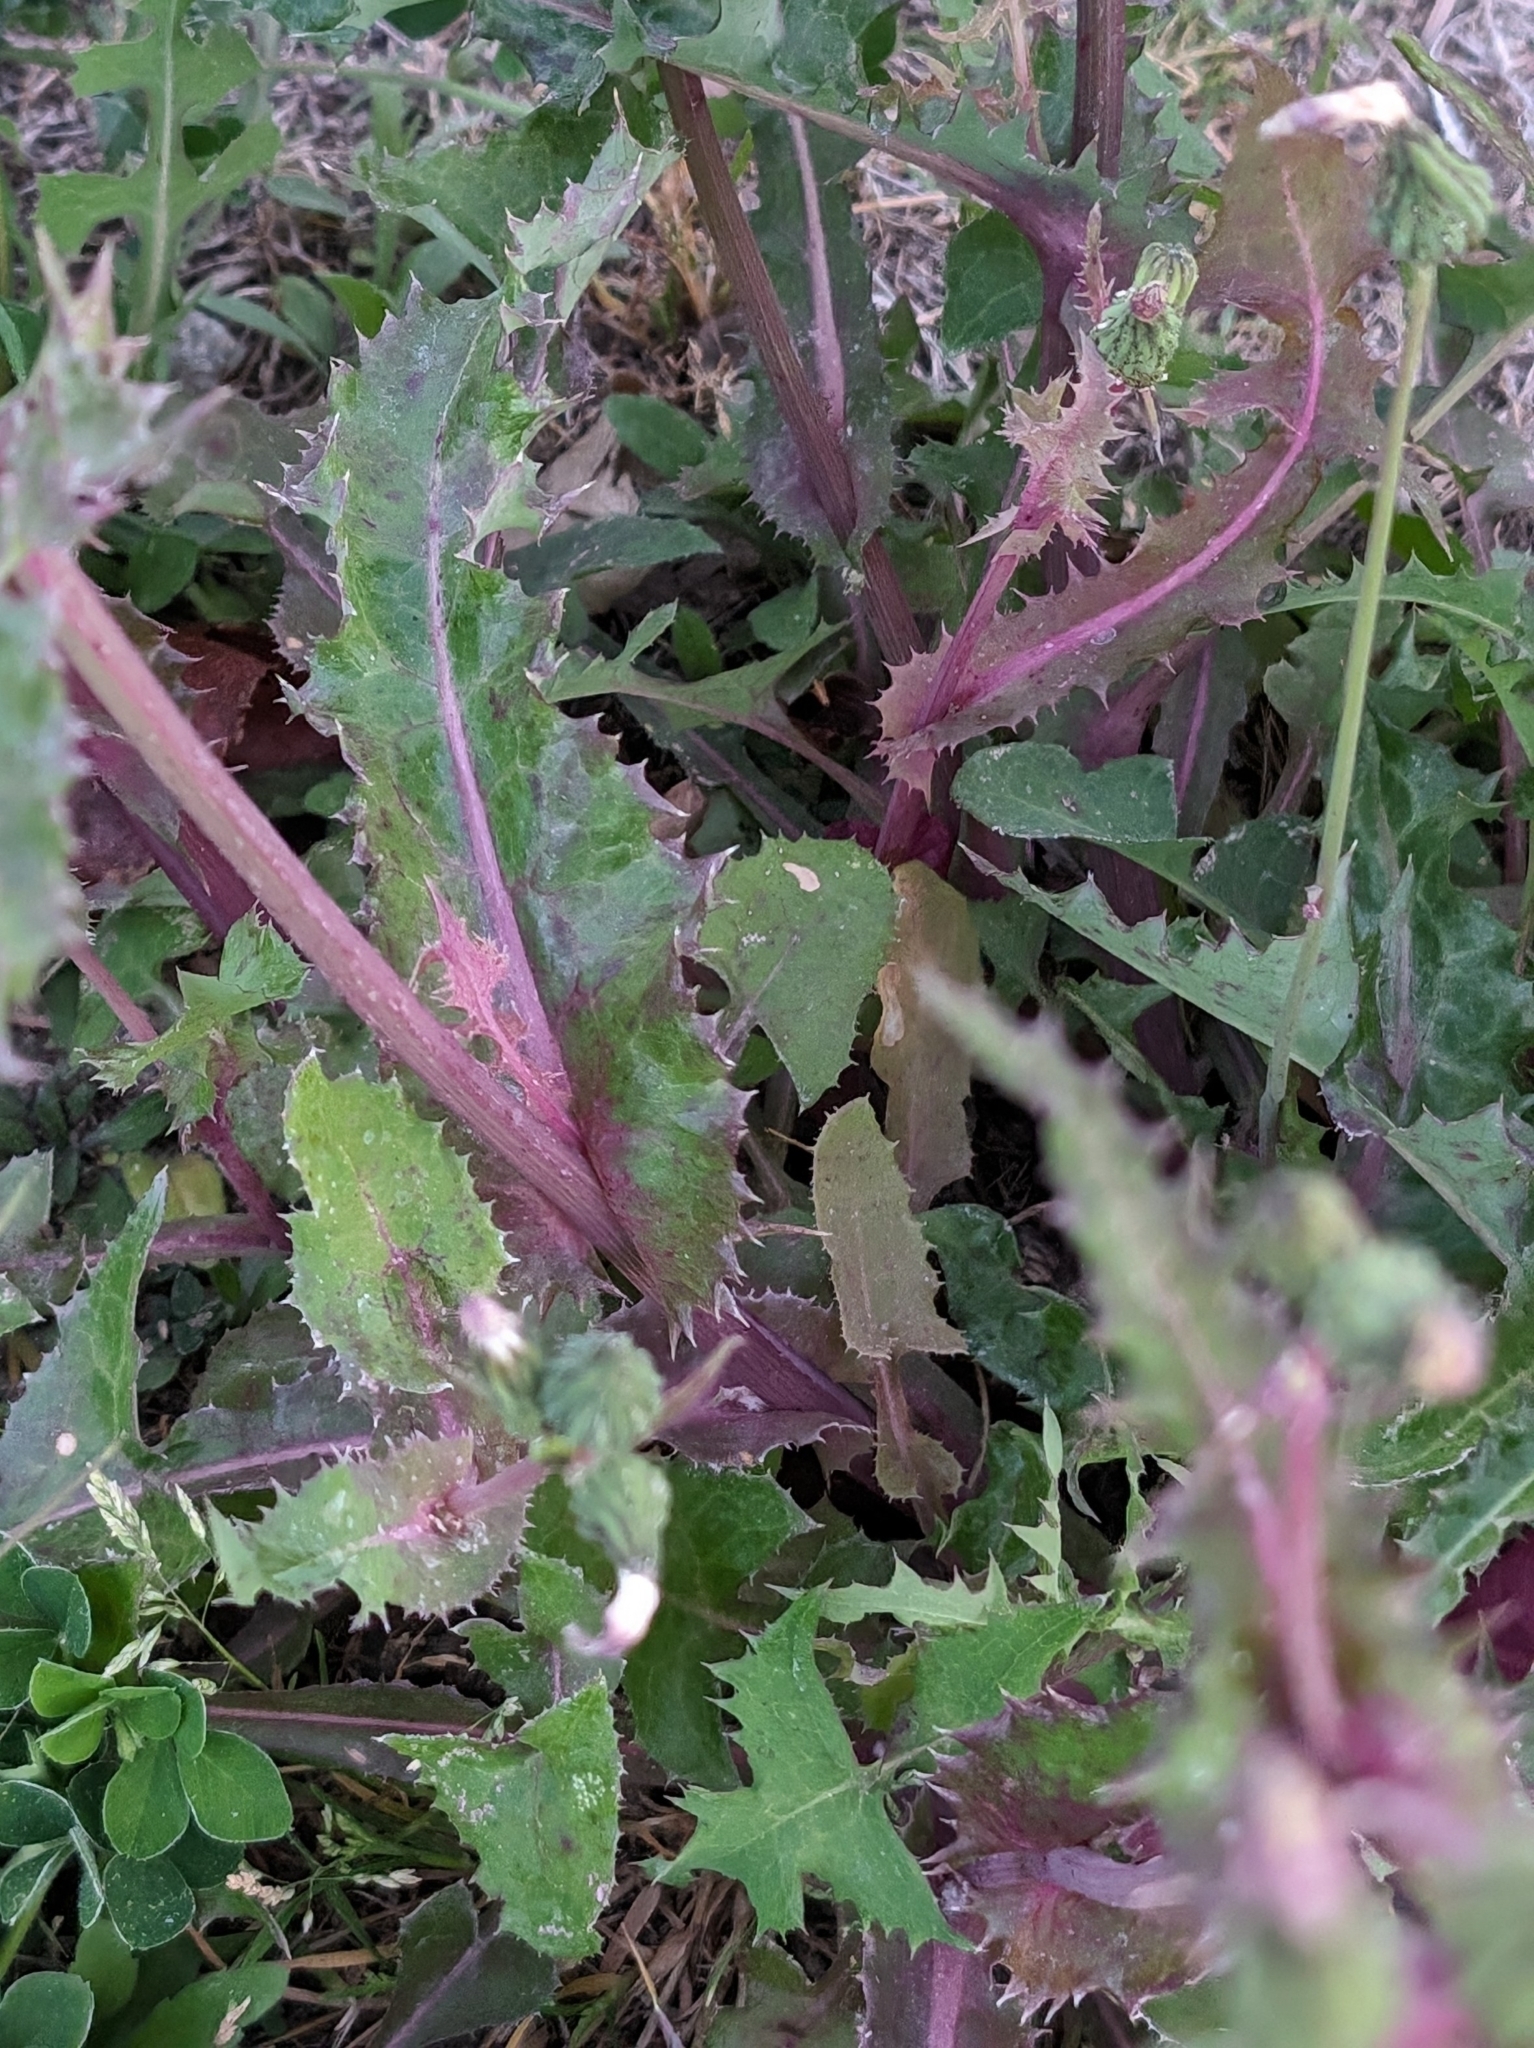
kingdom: Plantae
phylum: Tracheophyta
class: Magnoliopsida
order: Asterales
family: Asteraceae
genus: Sonchus
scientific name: Sonchus asper
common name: Prickly sow-thistle
